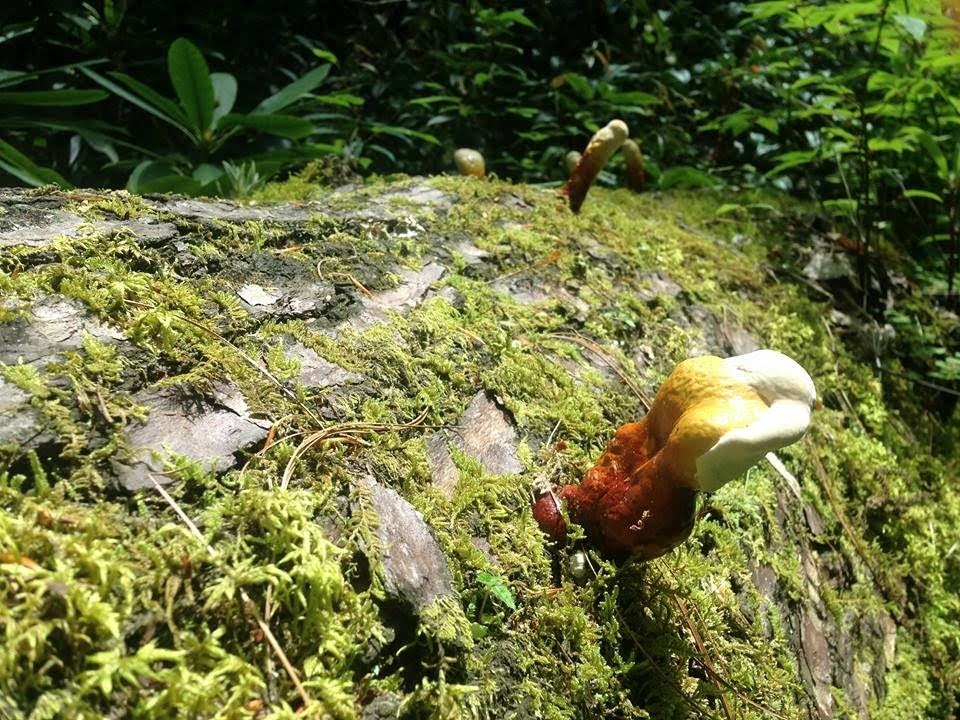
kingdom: Fungi
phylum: Basidiomycota
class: Agaricomycetes
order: Polyporales
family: Polyporaceae
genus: Ganoderma
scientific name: Ganoderma curtisii
